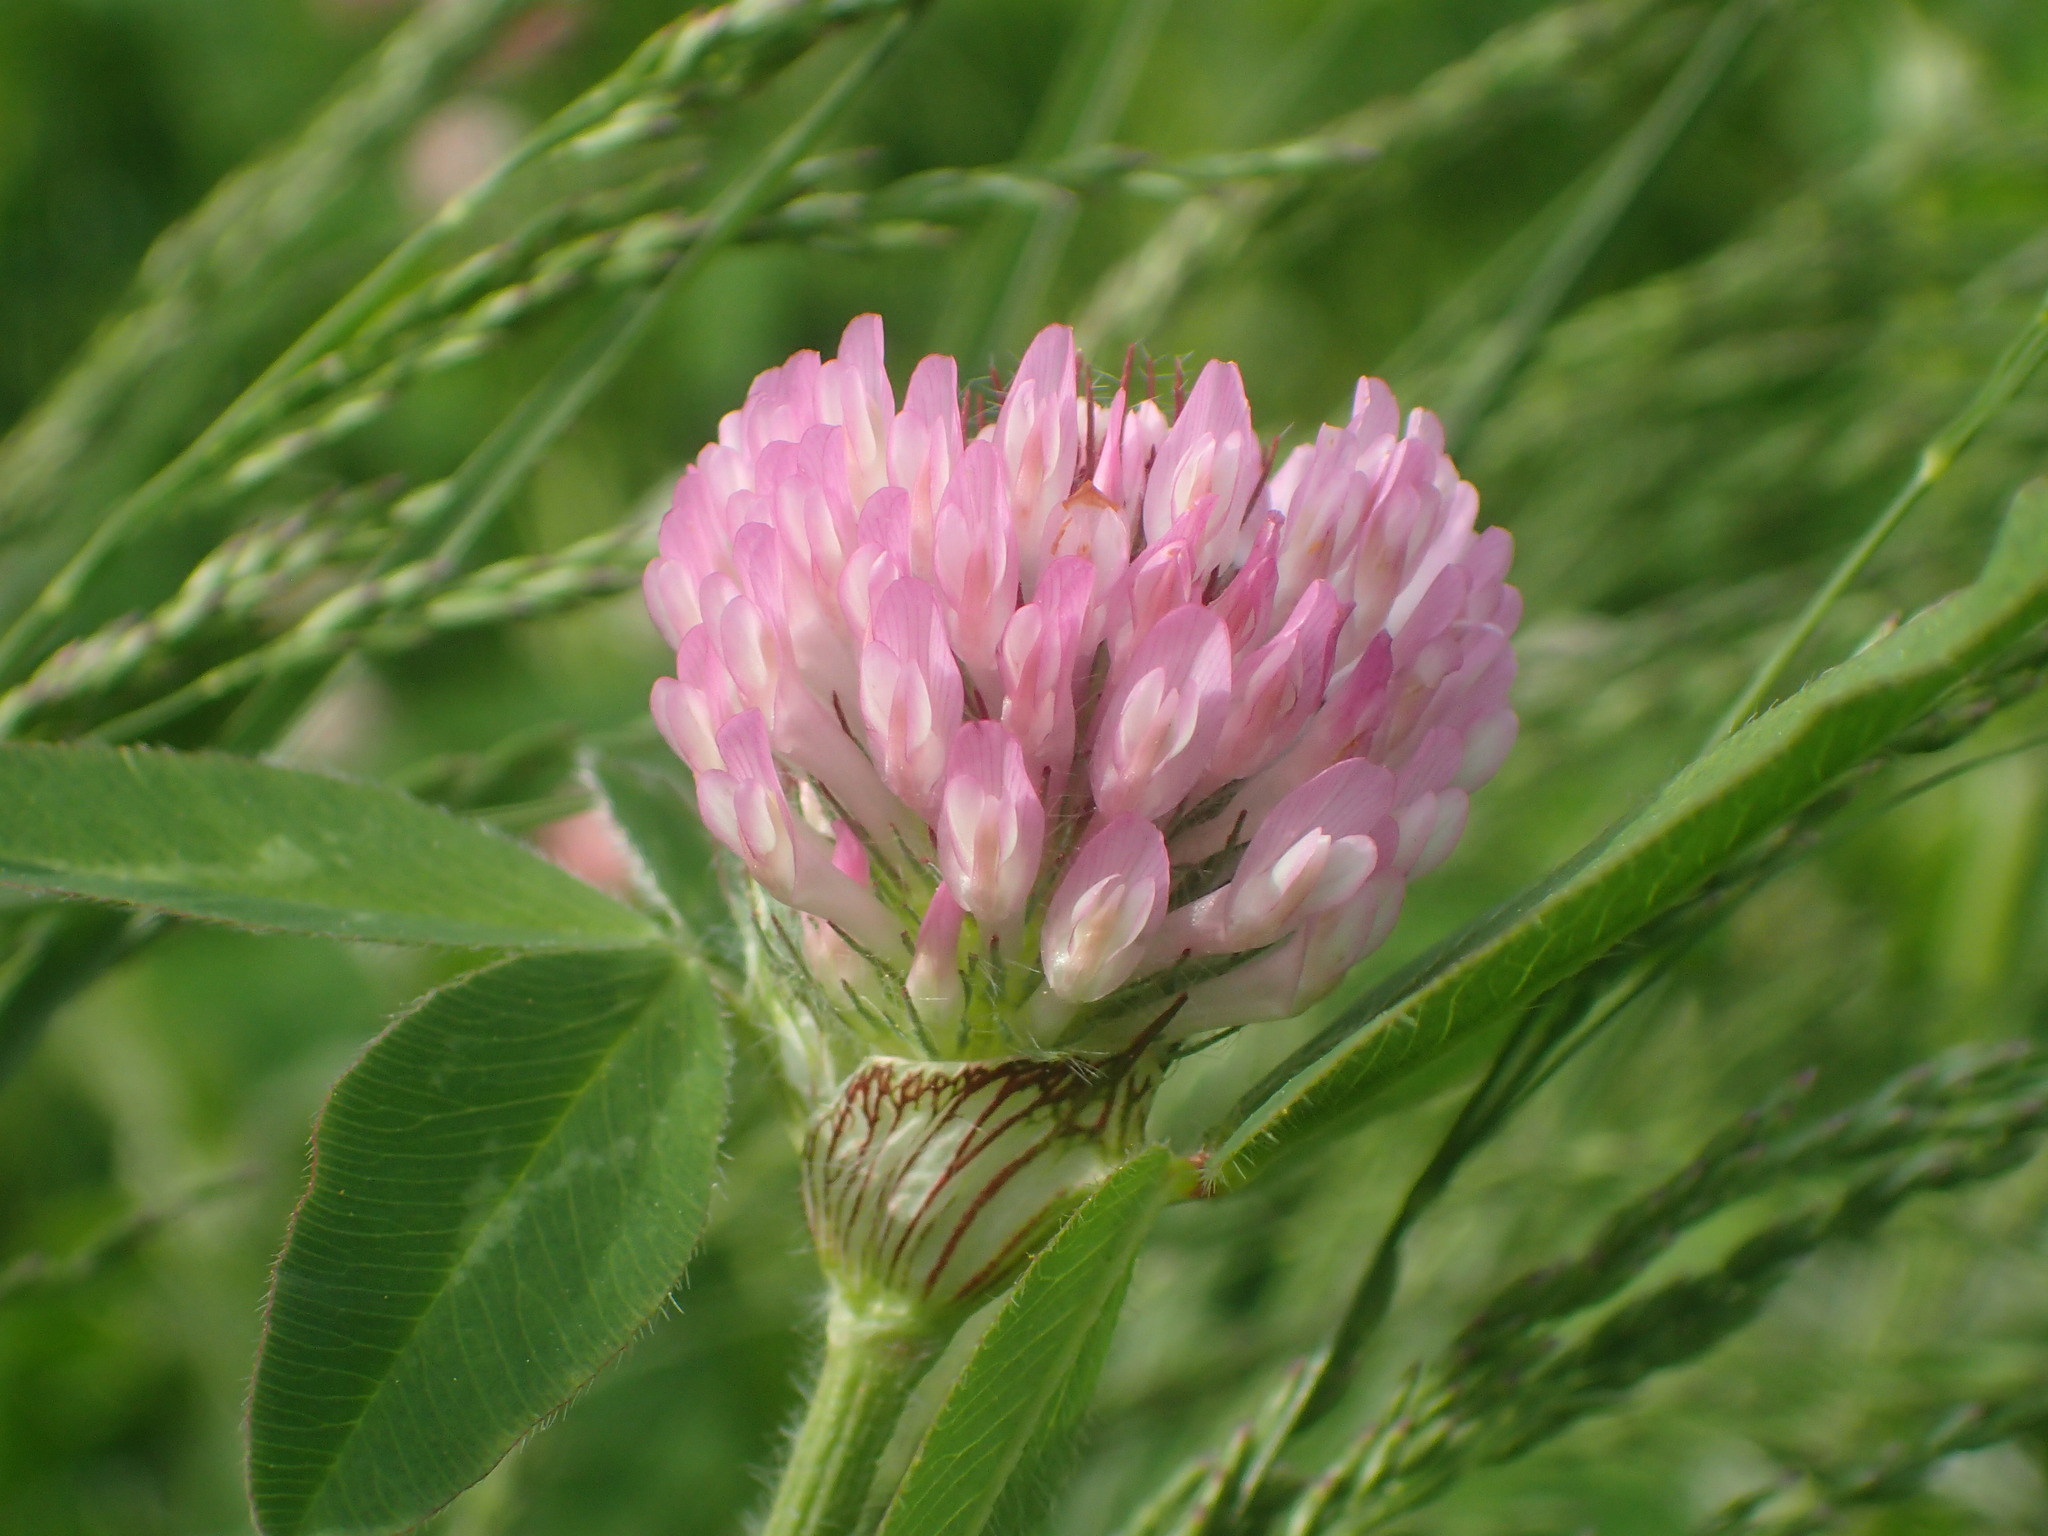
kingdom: Plantae
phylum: Tracheophyta
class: Magnoliopsida
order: Fabales
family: Fabaceae
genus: Trifolium
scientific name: Trifolium pratense
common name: Red clover
